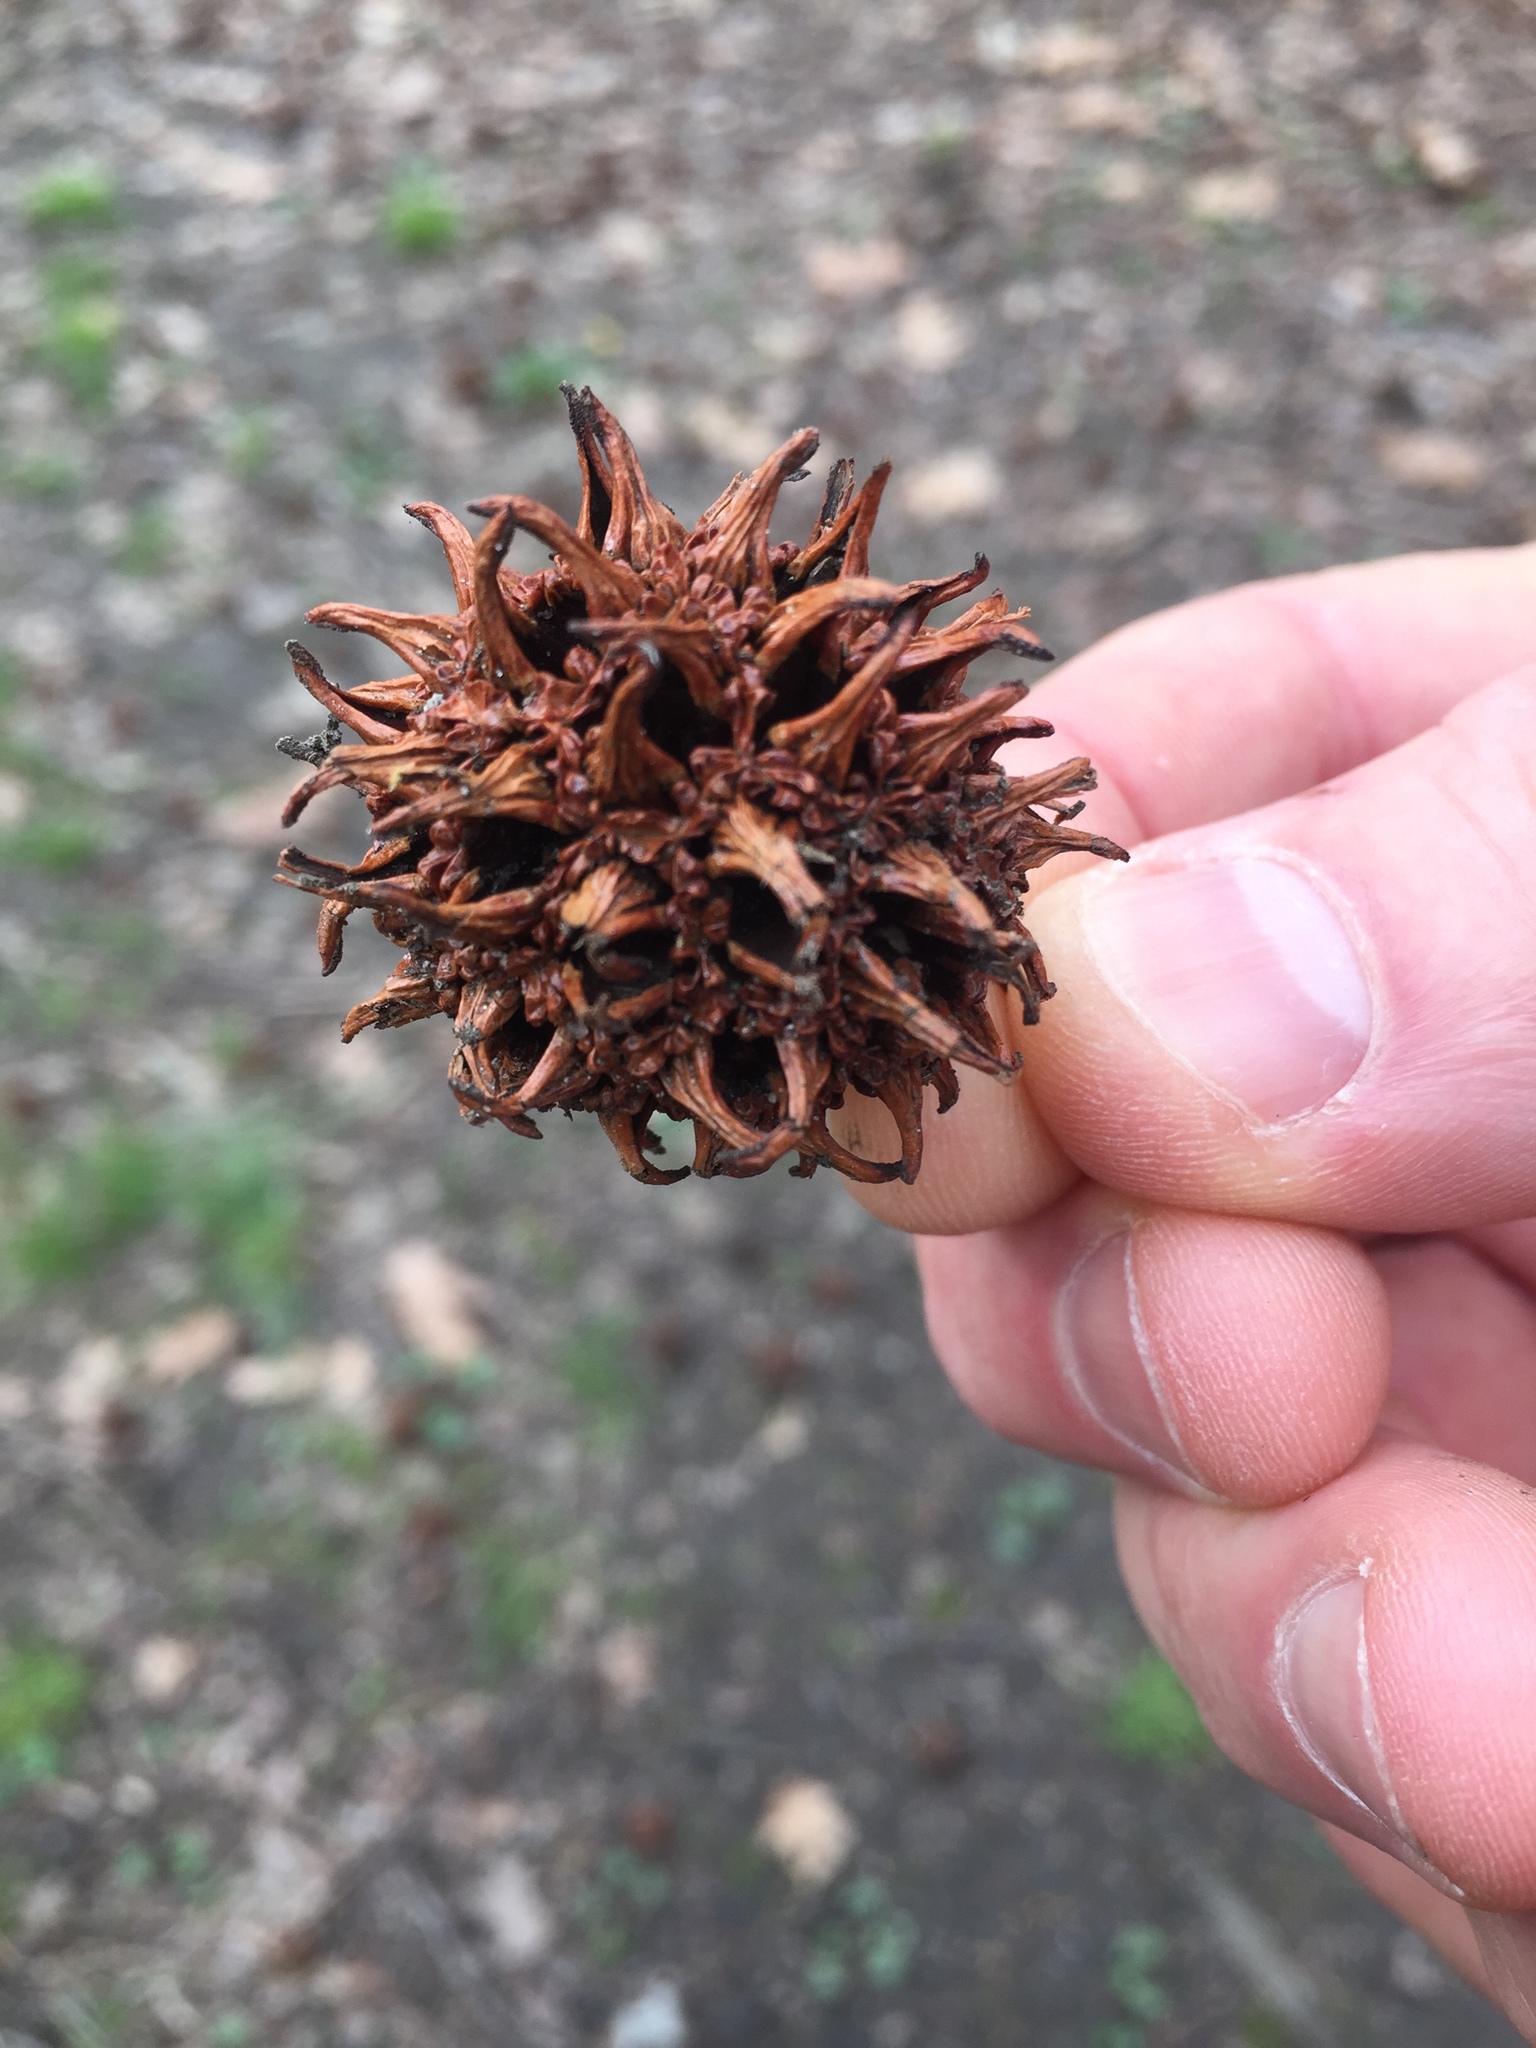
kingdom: Plantae
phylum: Tracheophyta
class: Magnoliopsida
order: Saxifragales
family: Altingiaceae
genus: Liquidambar
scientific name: Liquidambar styraciflua
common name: Sweet gum
